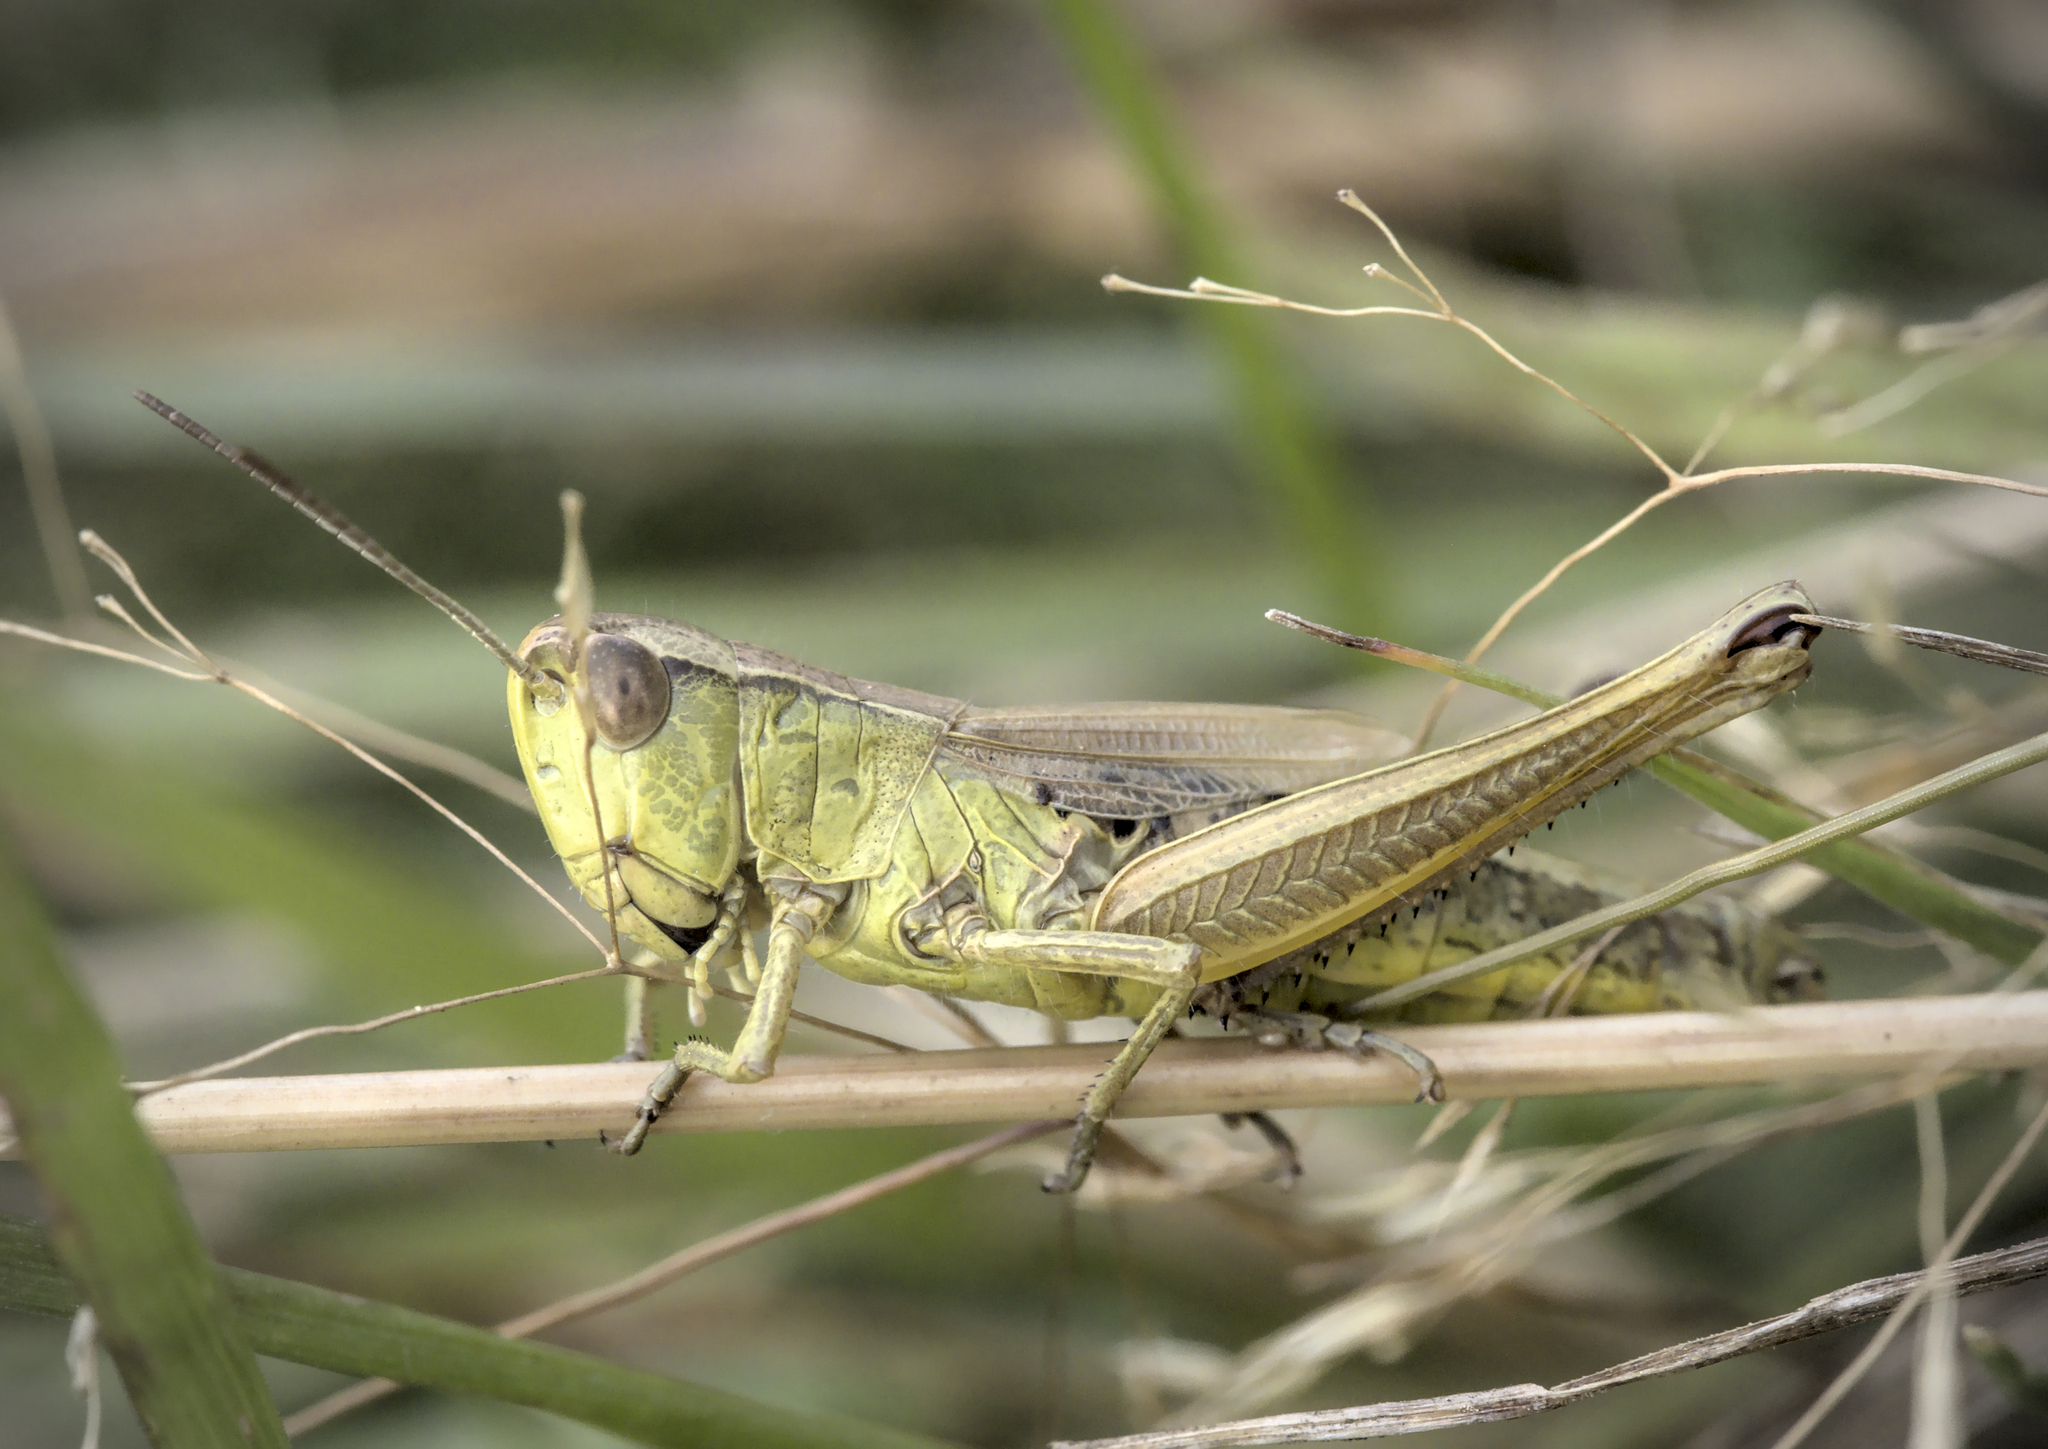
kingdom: Animalia
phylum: Arthropoda
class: Insecta
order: Orthoptera
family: Acrididae
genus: Pseudochorthippus
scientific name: Pseudochorthippus parallelus
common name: Meadow grasshopper
